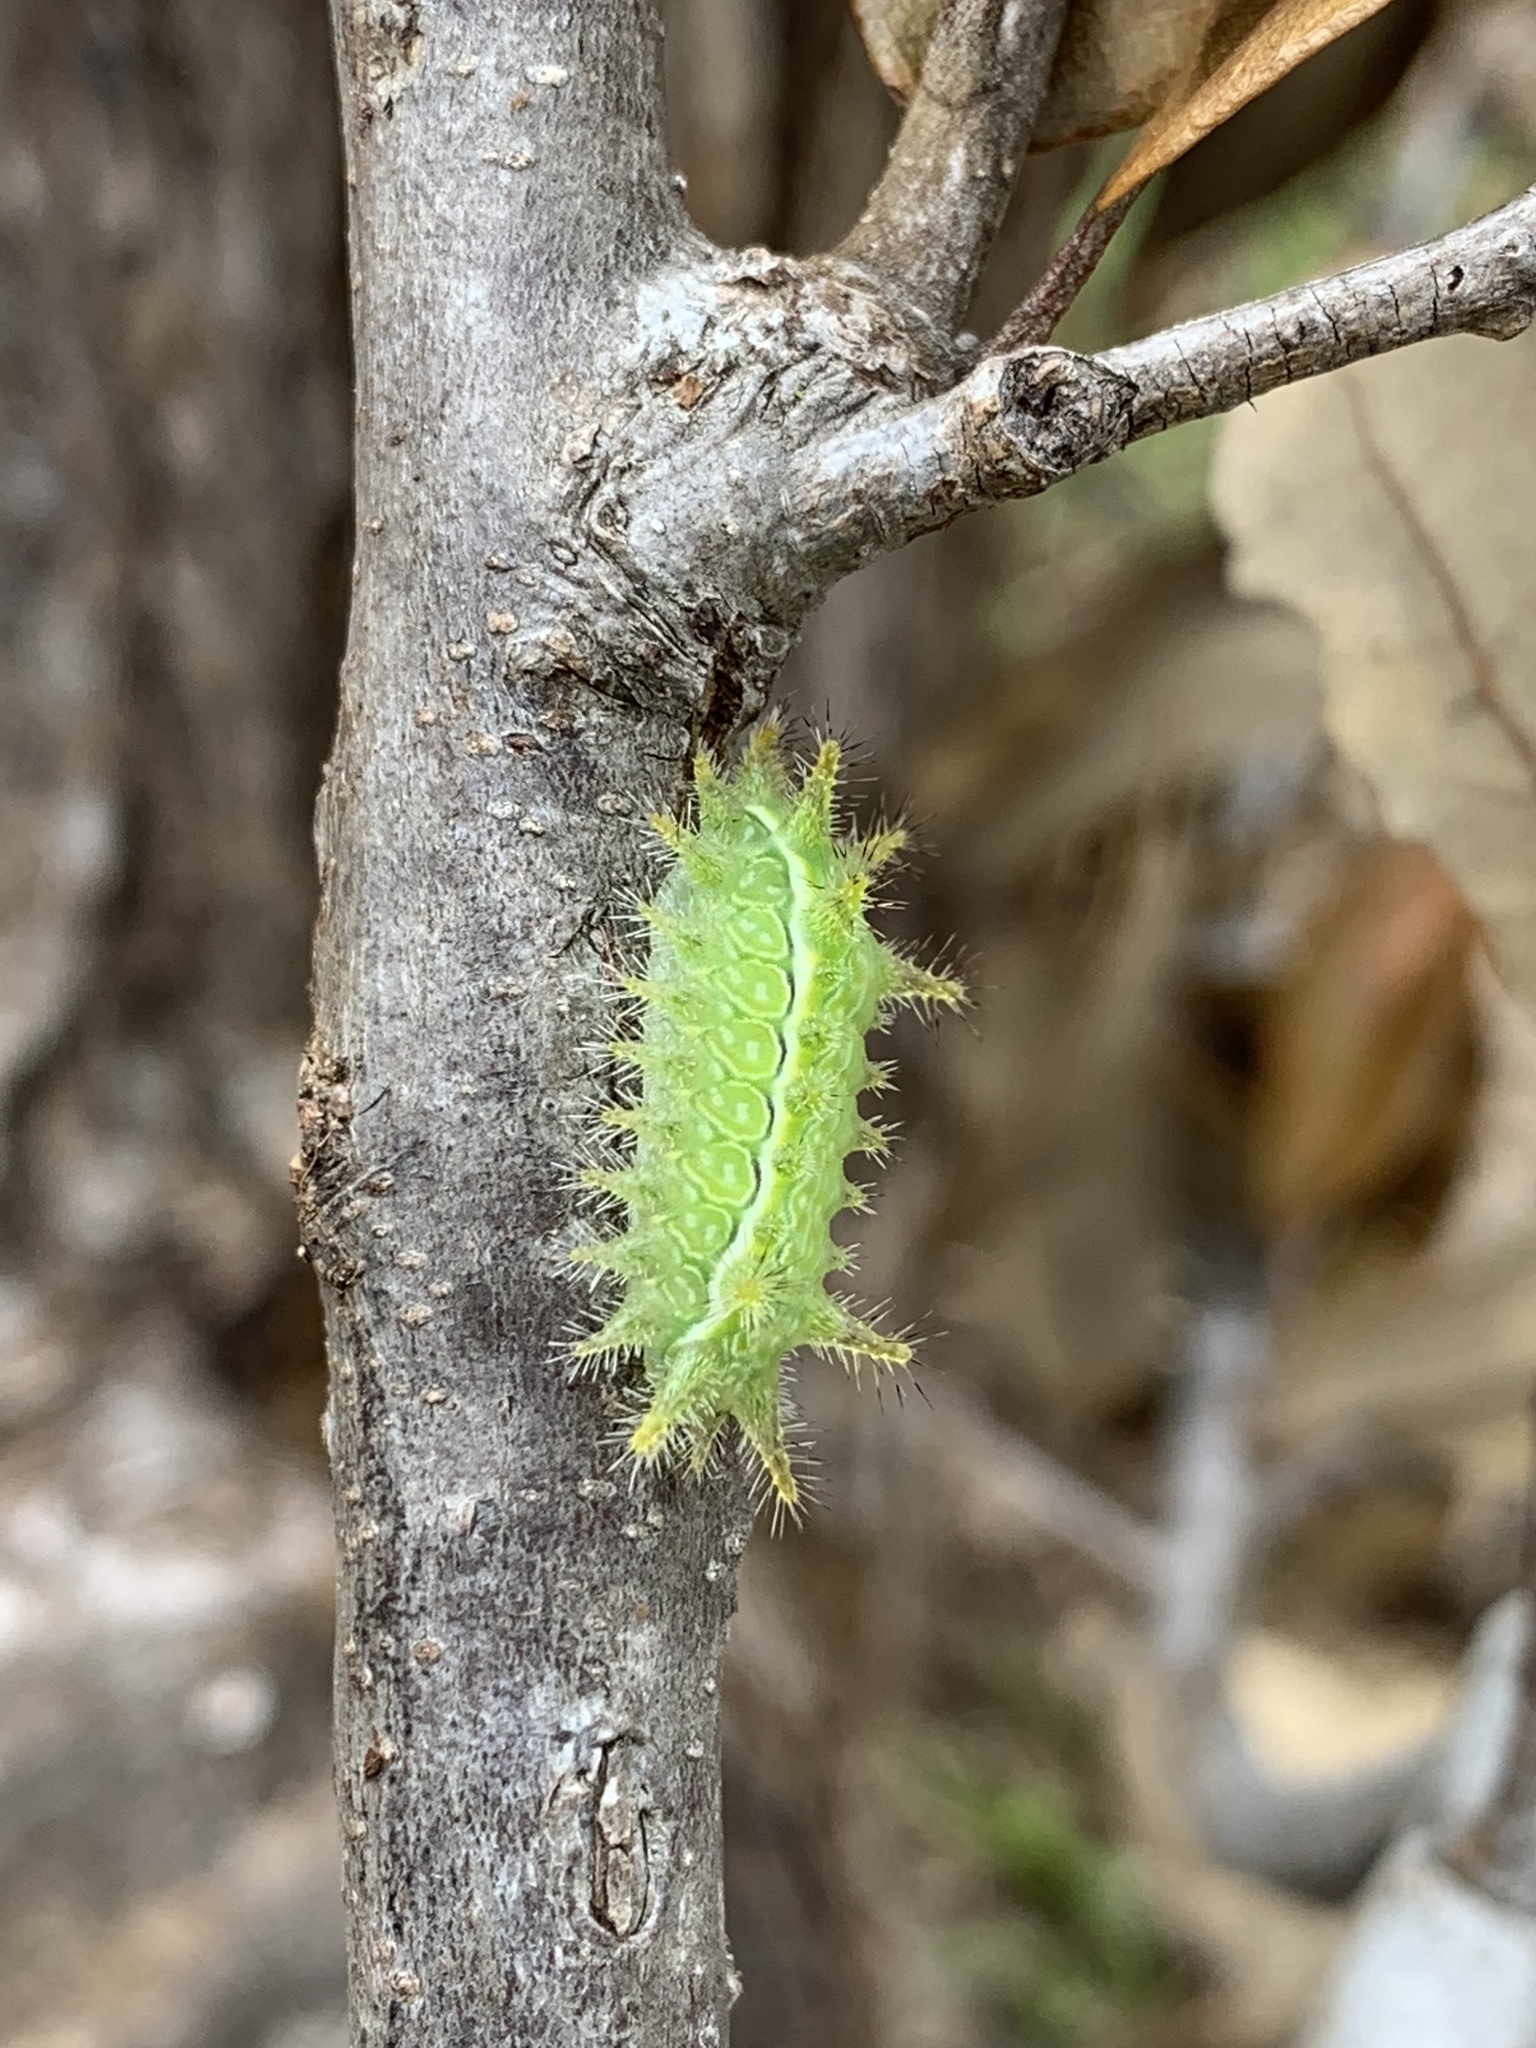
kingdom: Animalia
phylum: Arthropoda
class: Insecta
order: Lepidoptera
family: Limacodidae
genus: Euclea
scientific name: Euclea incisa
